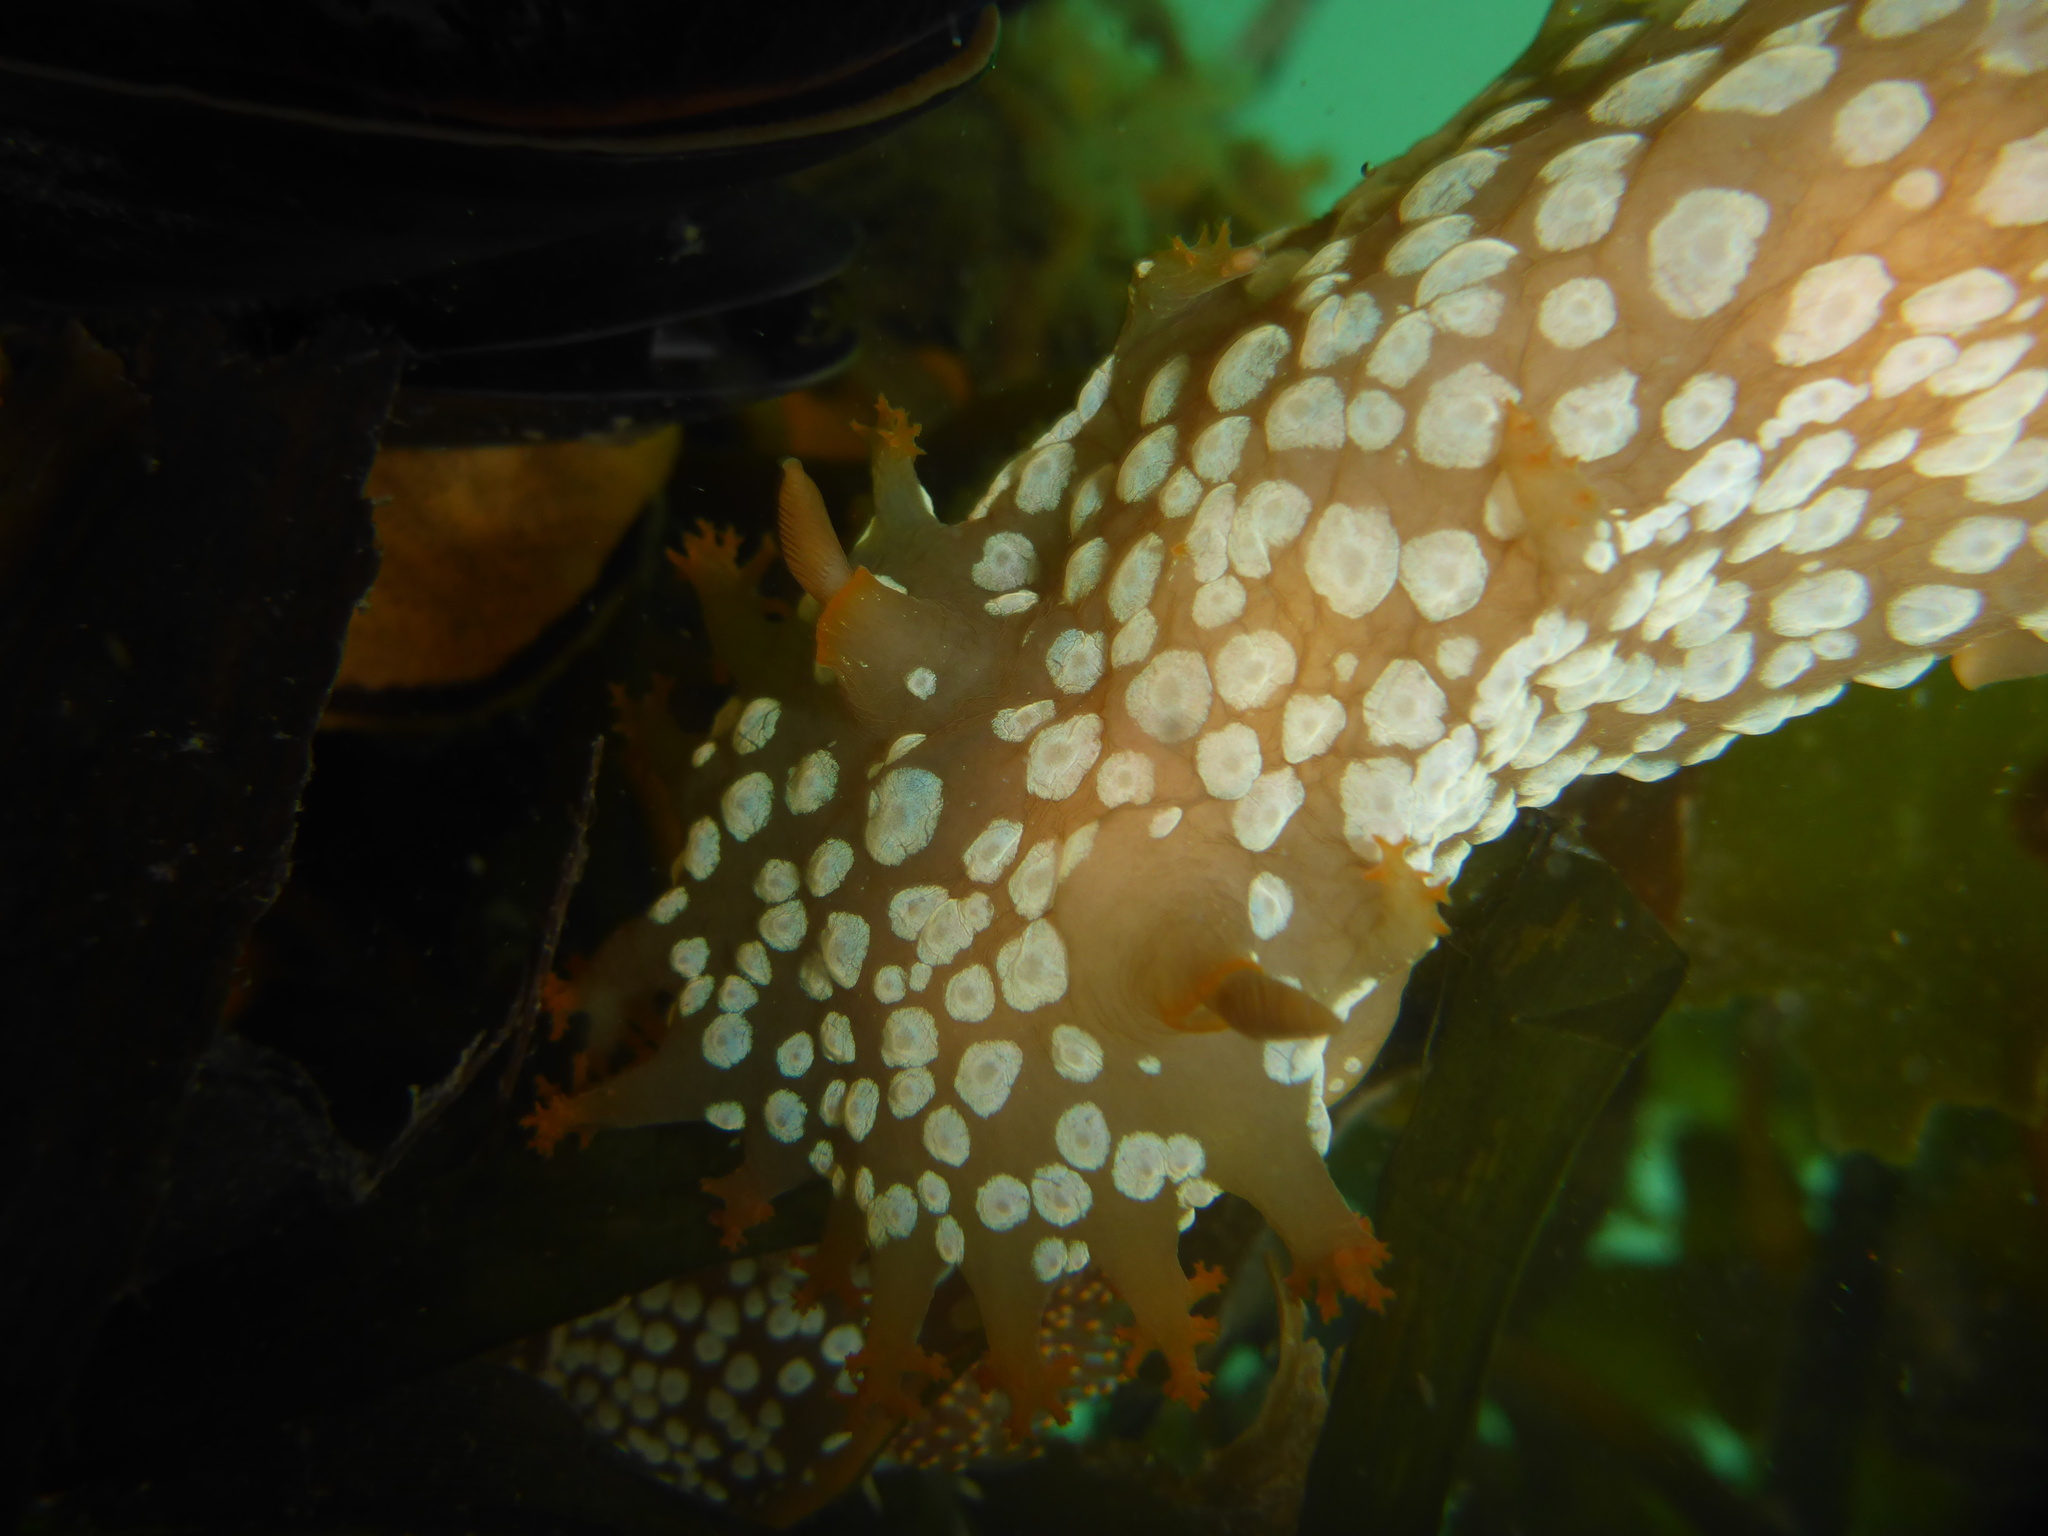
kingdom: Animalia
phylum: Mollusca
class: Gastropoda
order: Nudibranchia
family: Polyceridae
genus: Triopha
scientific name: Triopha maculata
